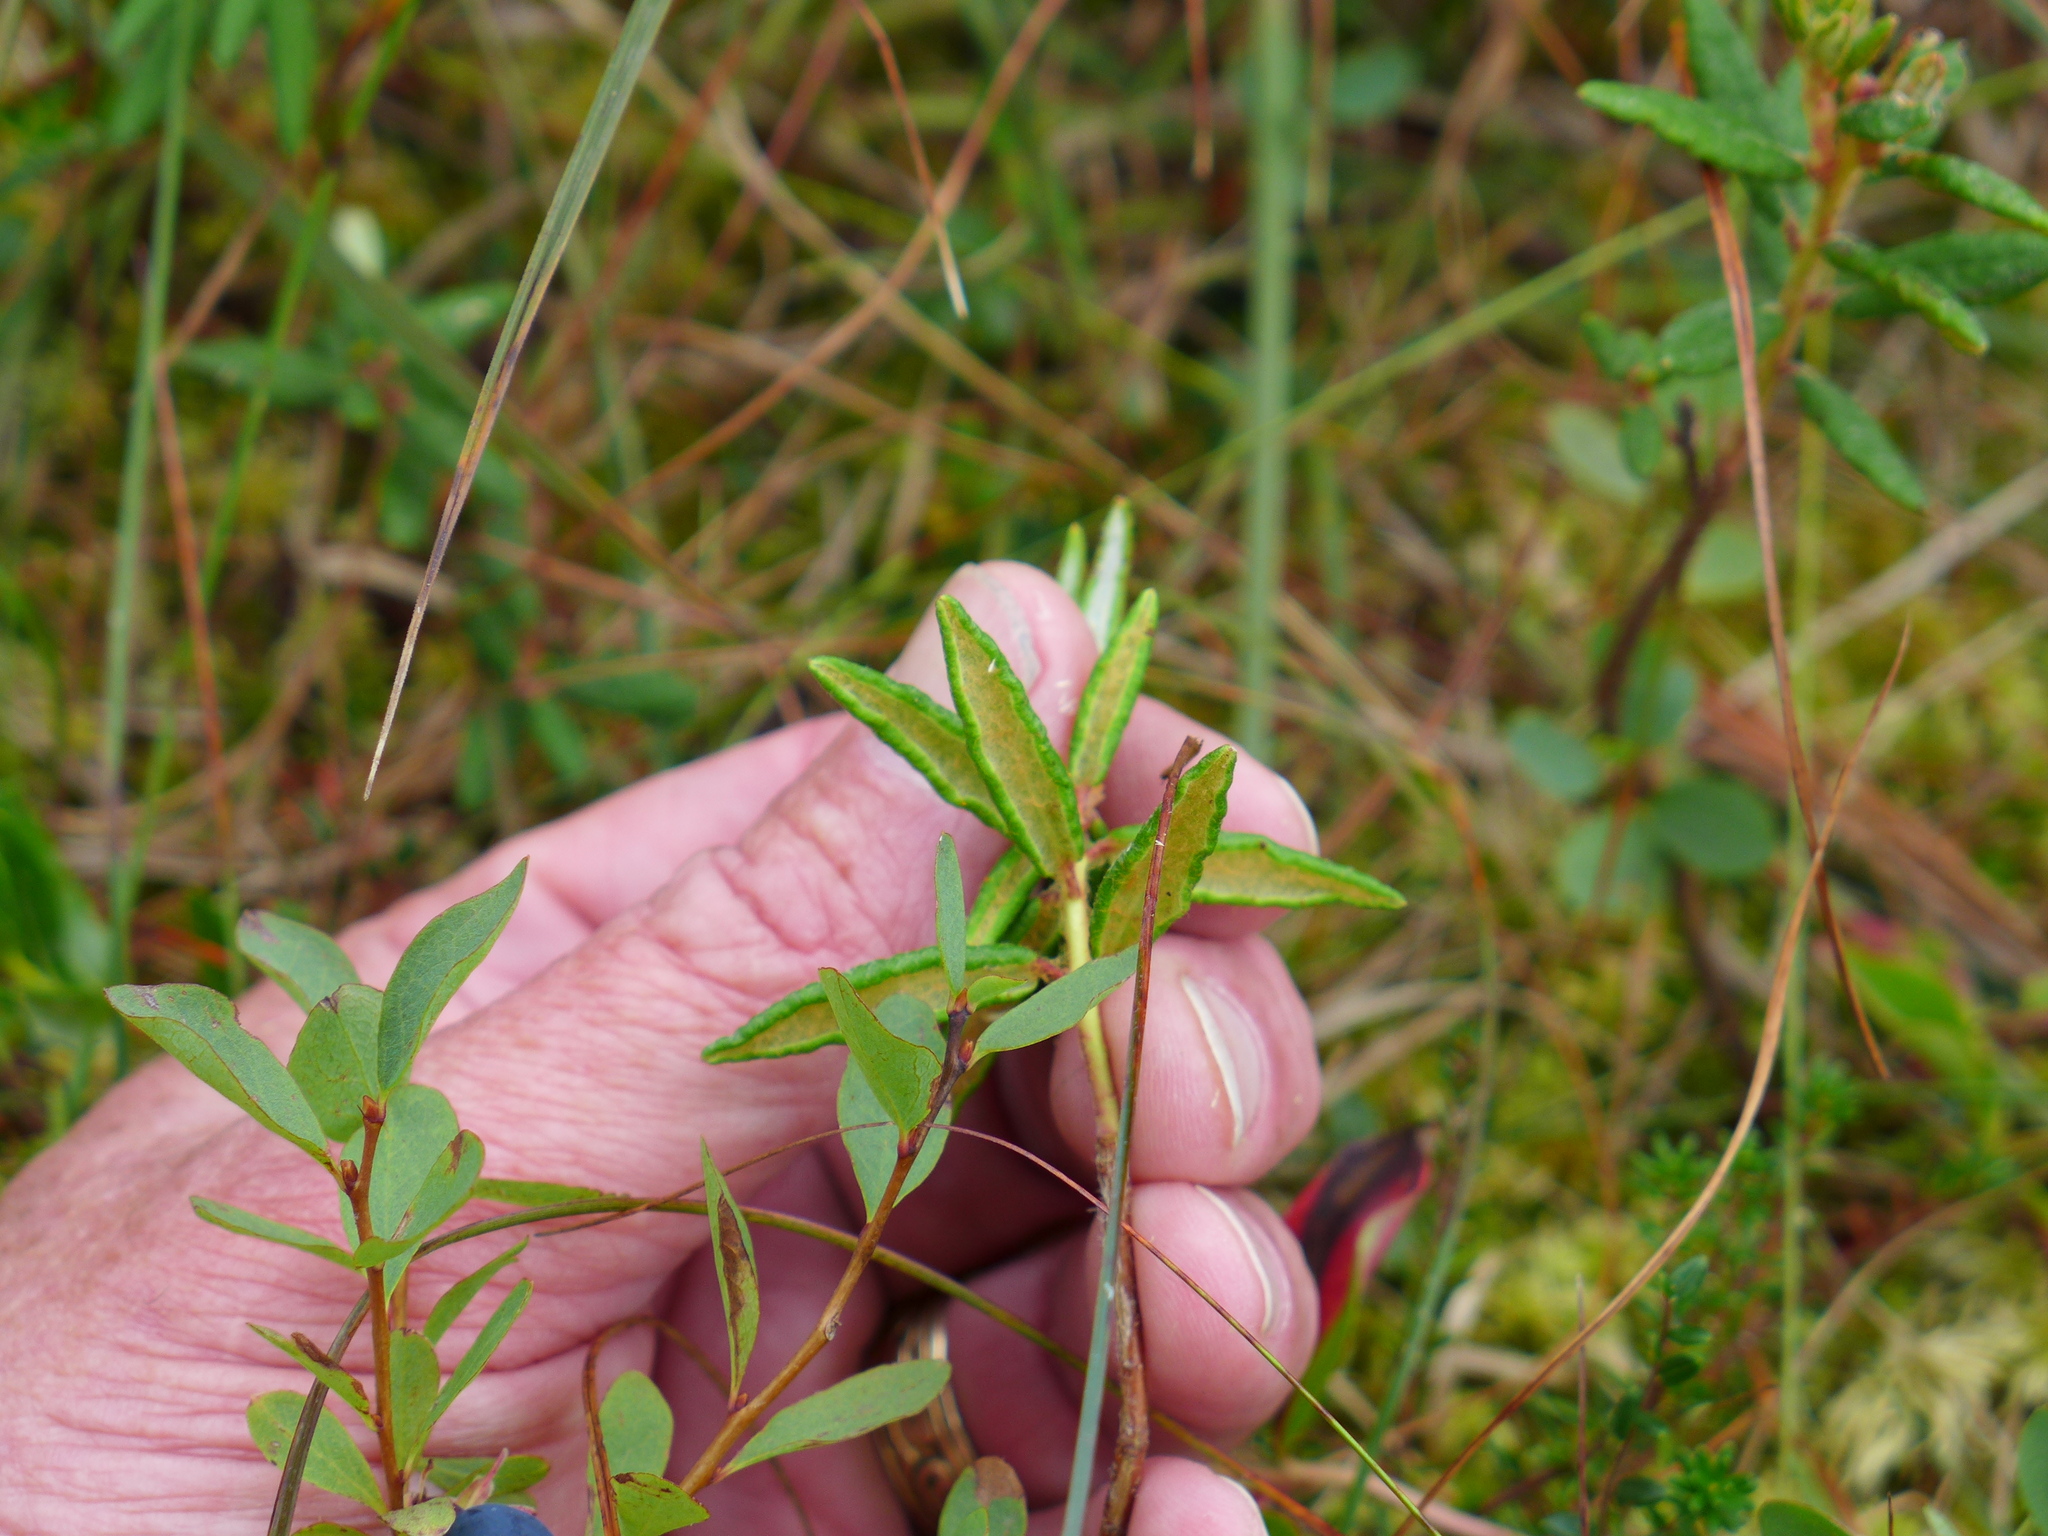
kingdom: Plantae
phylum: Tracheophyta
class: Magnoliopsida
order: Ericales
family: Ericaceae
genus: Rhododendron
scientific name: Rhododendron groenlandicum
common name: Bog labrador tea
